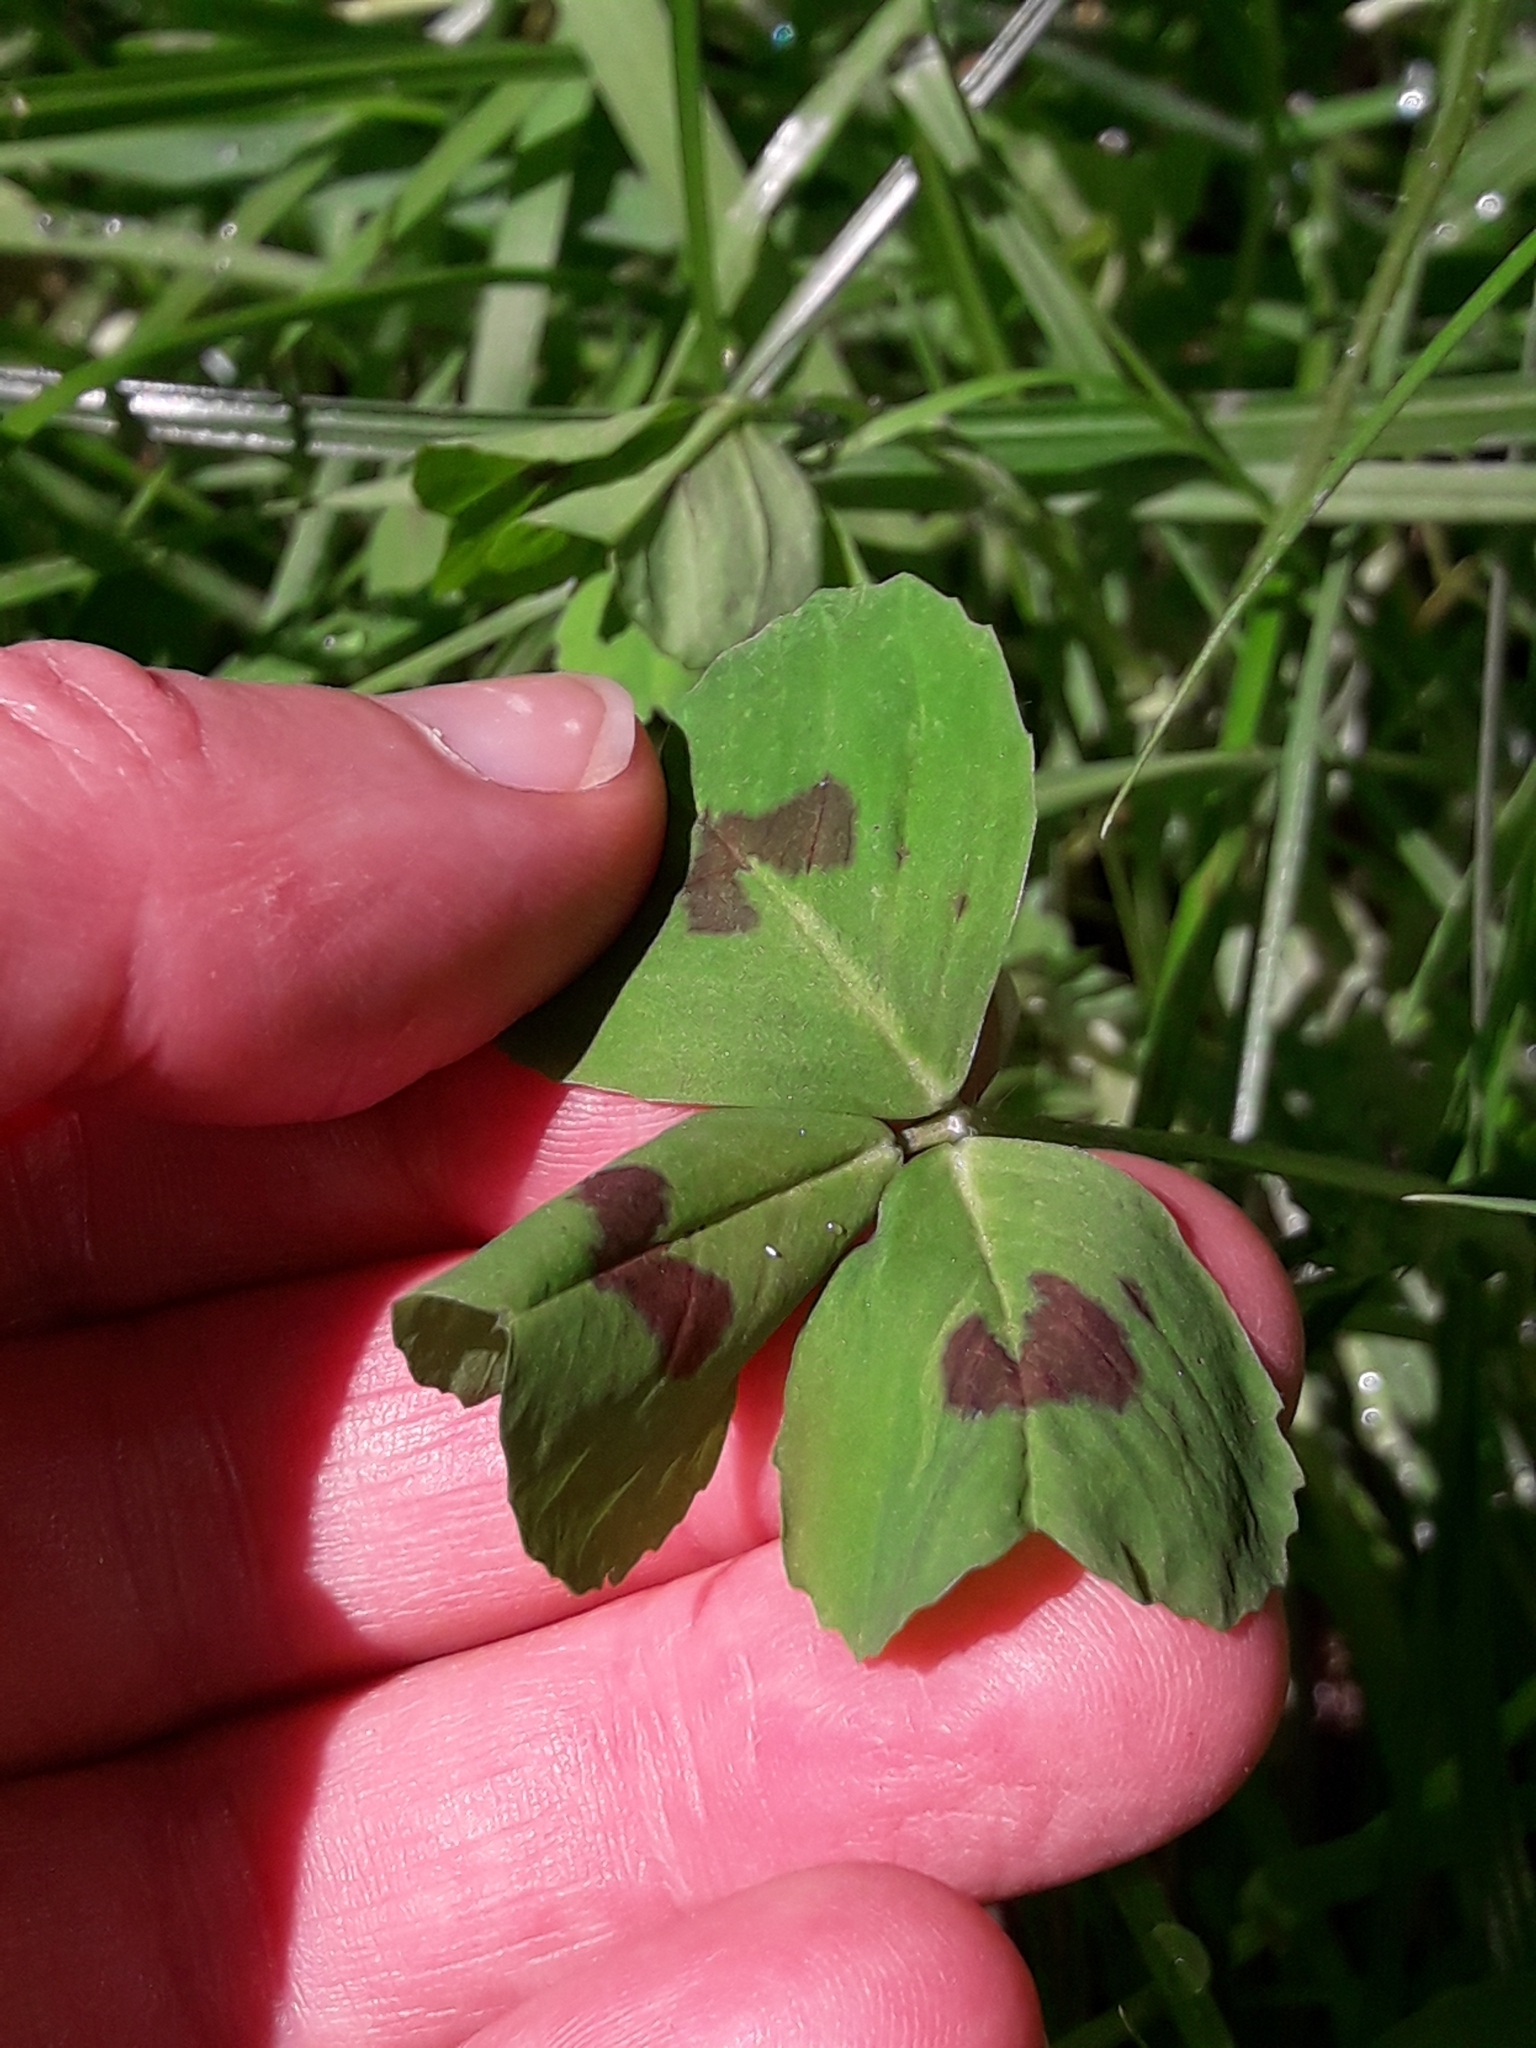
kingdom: Plantae
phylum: Tracheophyta
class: Magnoliopsida
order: Fabales
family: Fabaceae
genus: Medicago
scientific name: Medicago arabica
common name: Spotted medick
